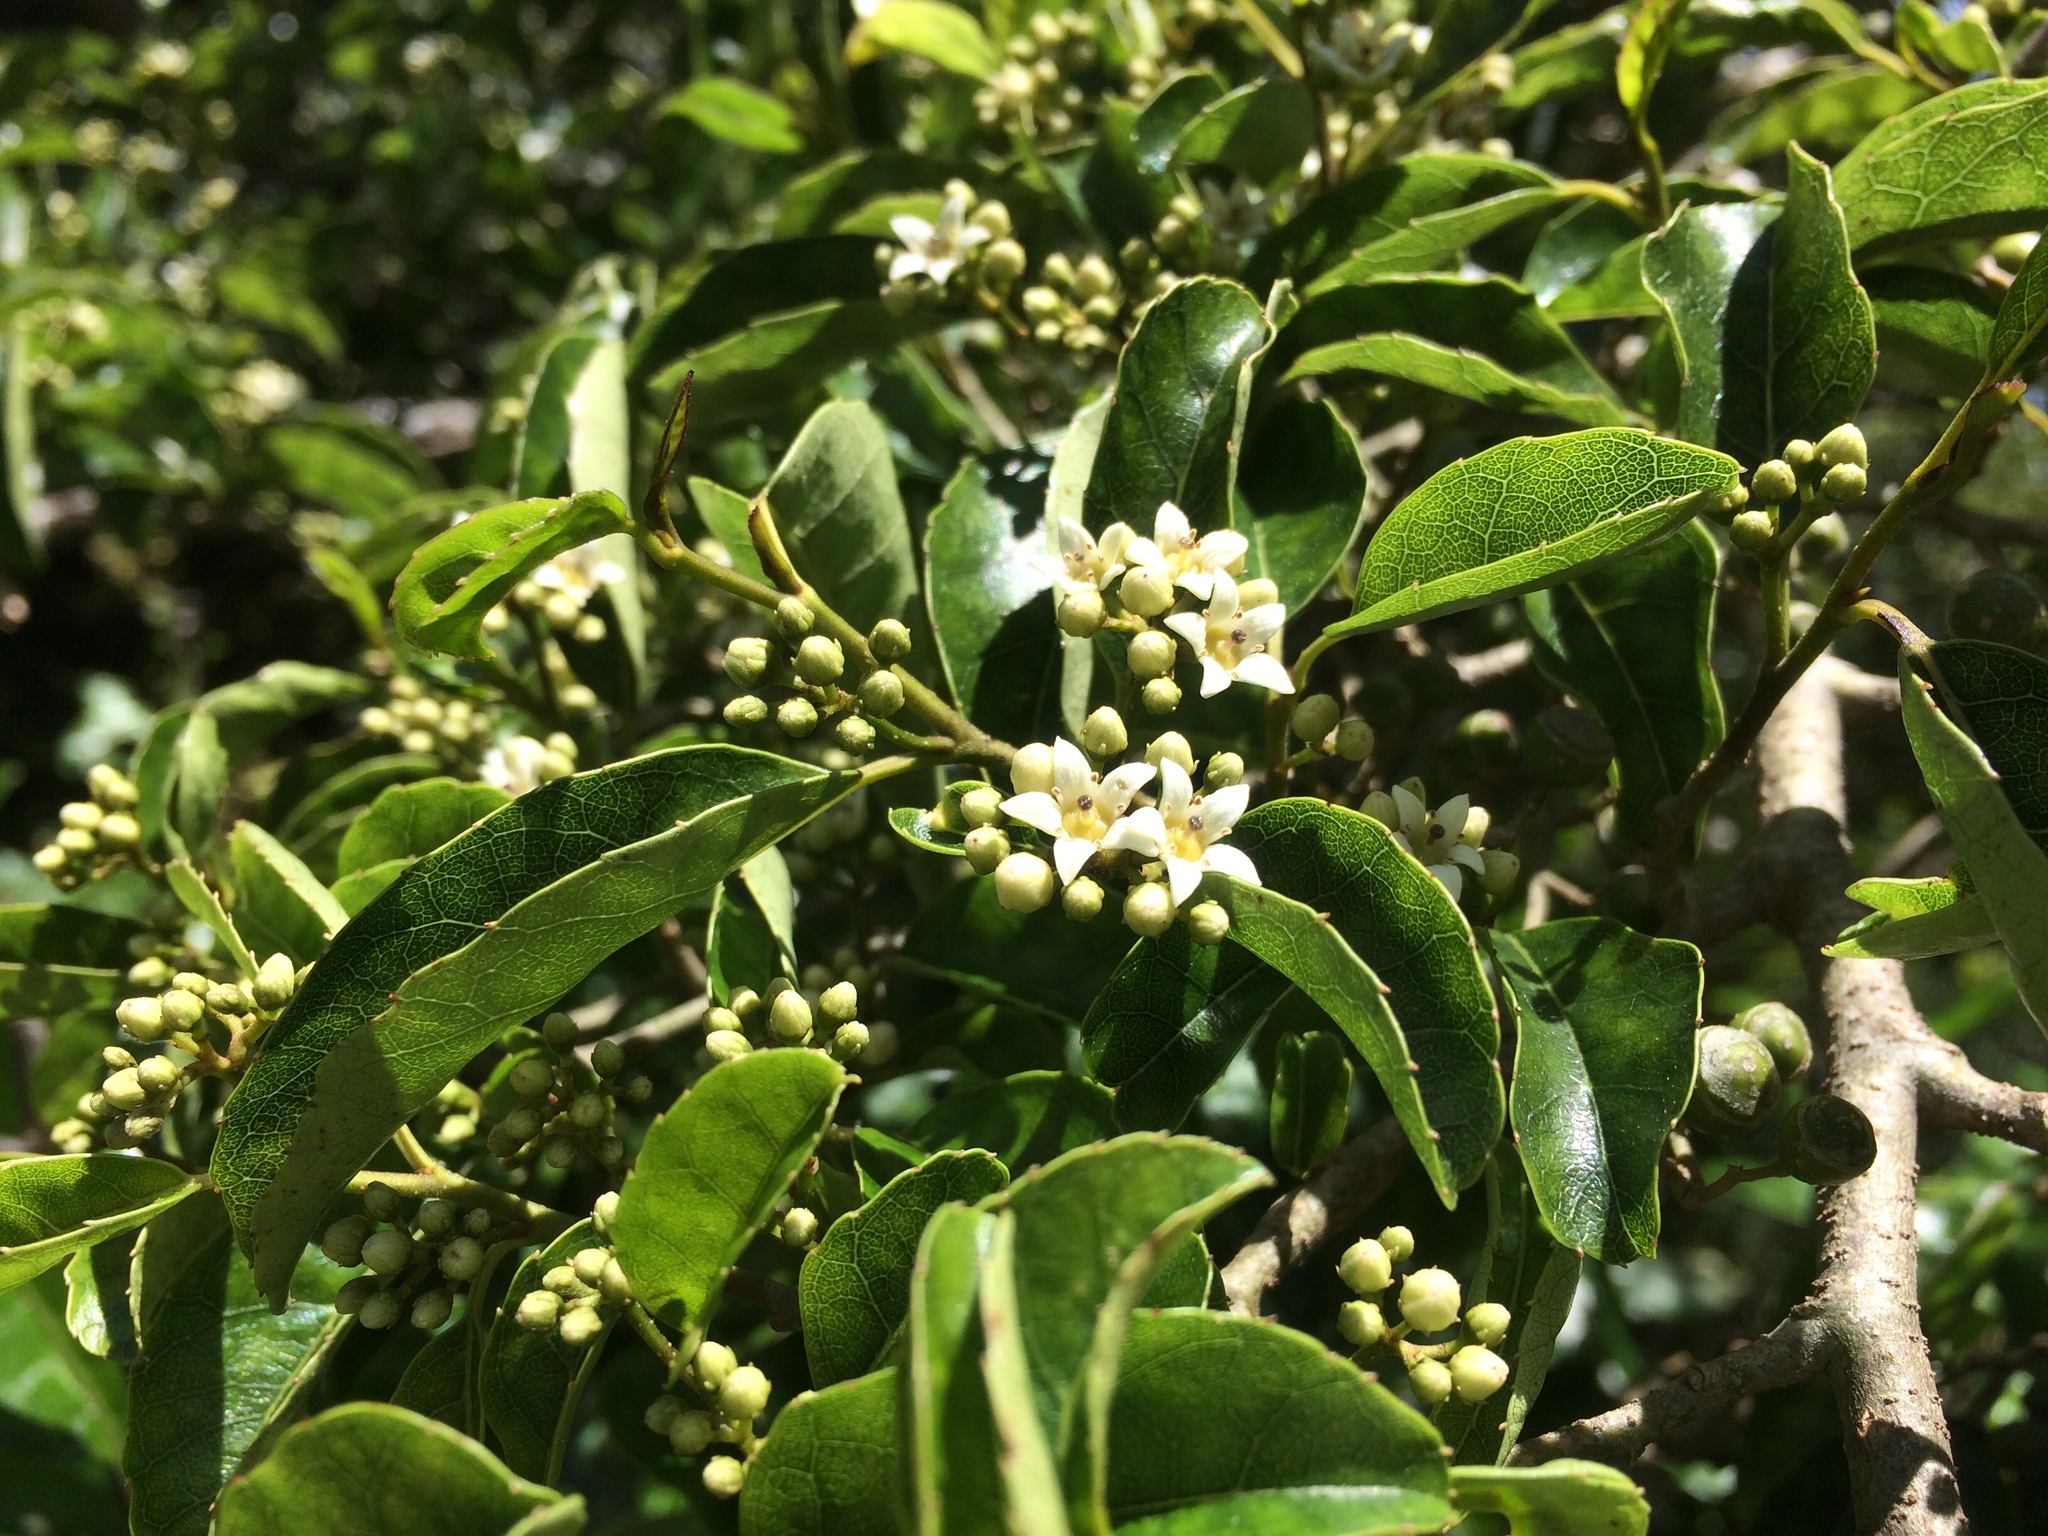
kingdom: Plantae
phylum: Tracheophyta
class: Magnoliopsida
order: Asterales
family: Rousseaceae
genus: Carpodetus
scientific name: Carpodetus serratus
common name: White mapau
